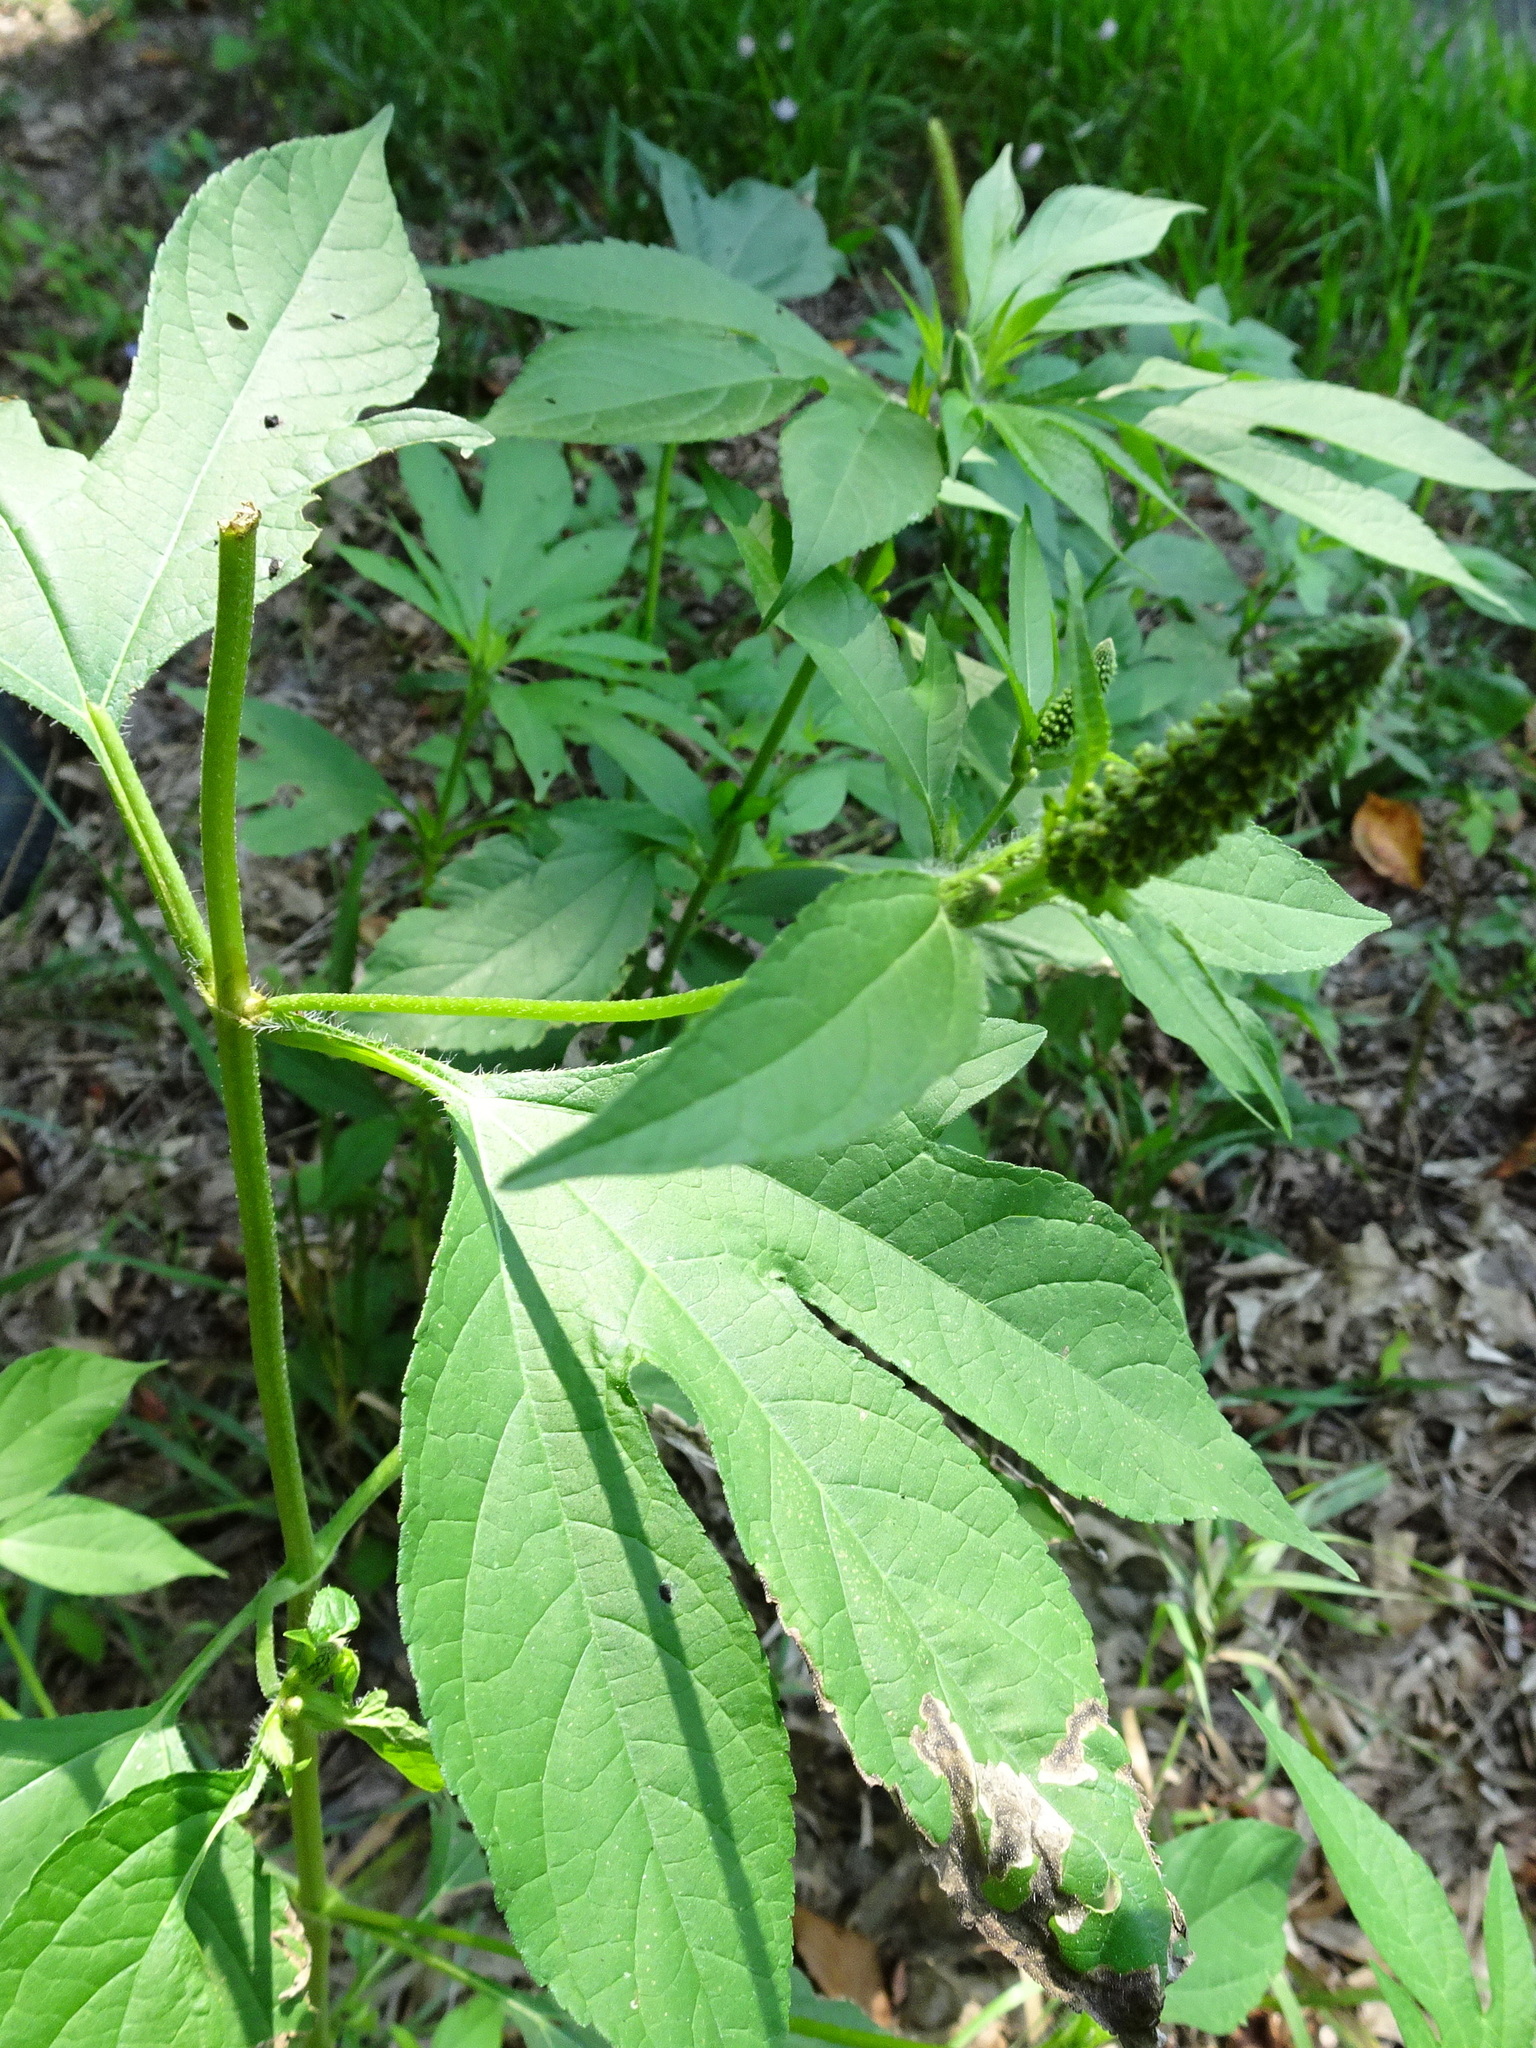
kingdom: Plantae
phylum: Tracheophyta
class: Magnoliopsida
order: Asterales
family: Asteraceae
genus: Ambrosia
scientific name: Ambrosia trifida
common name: Giant ragweed
